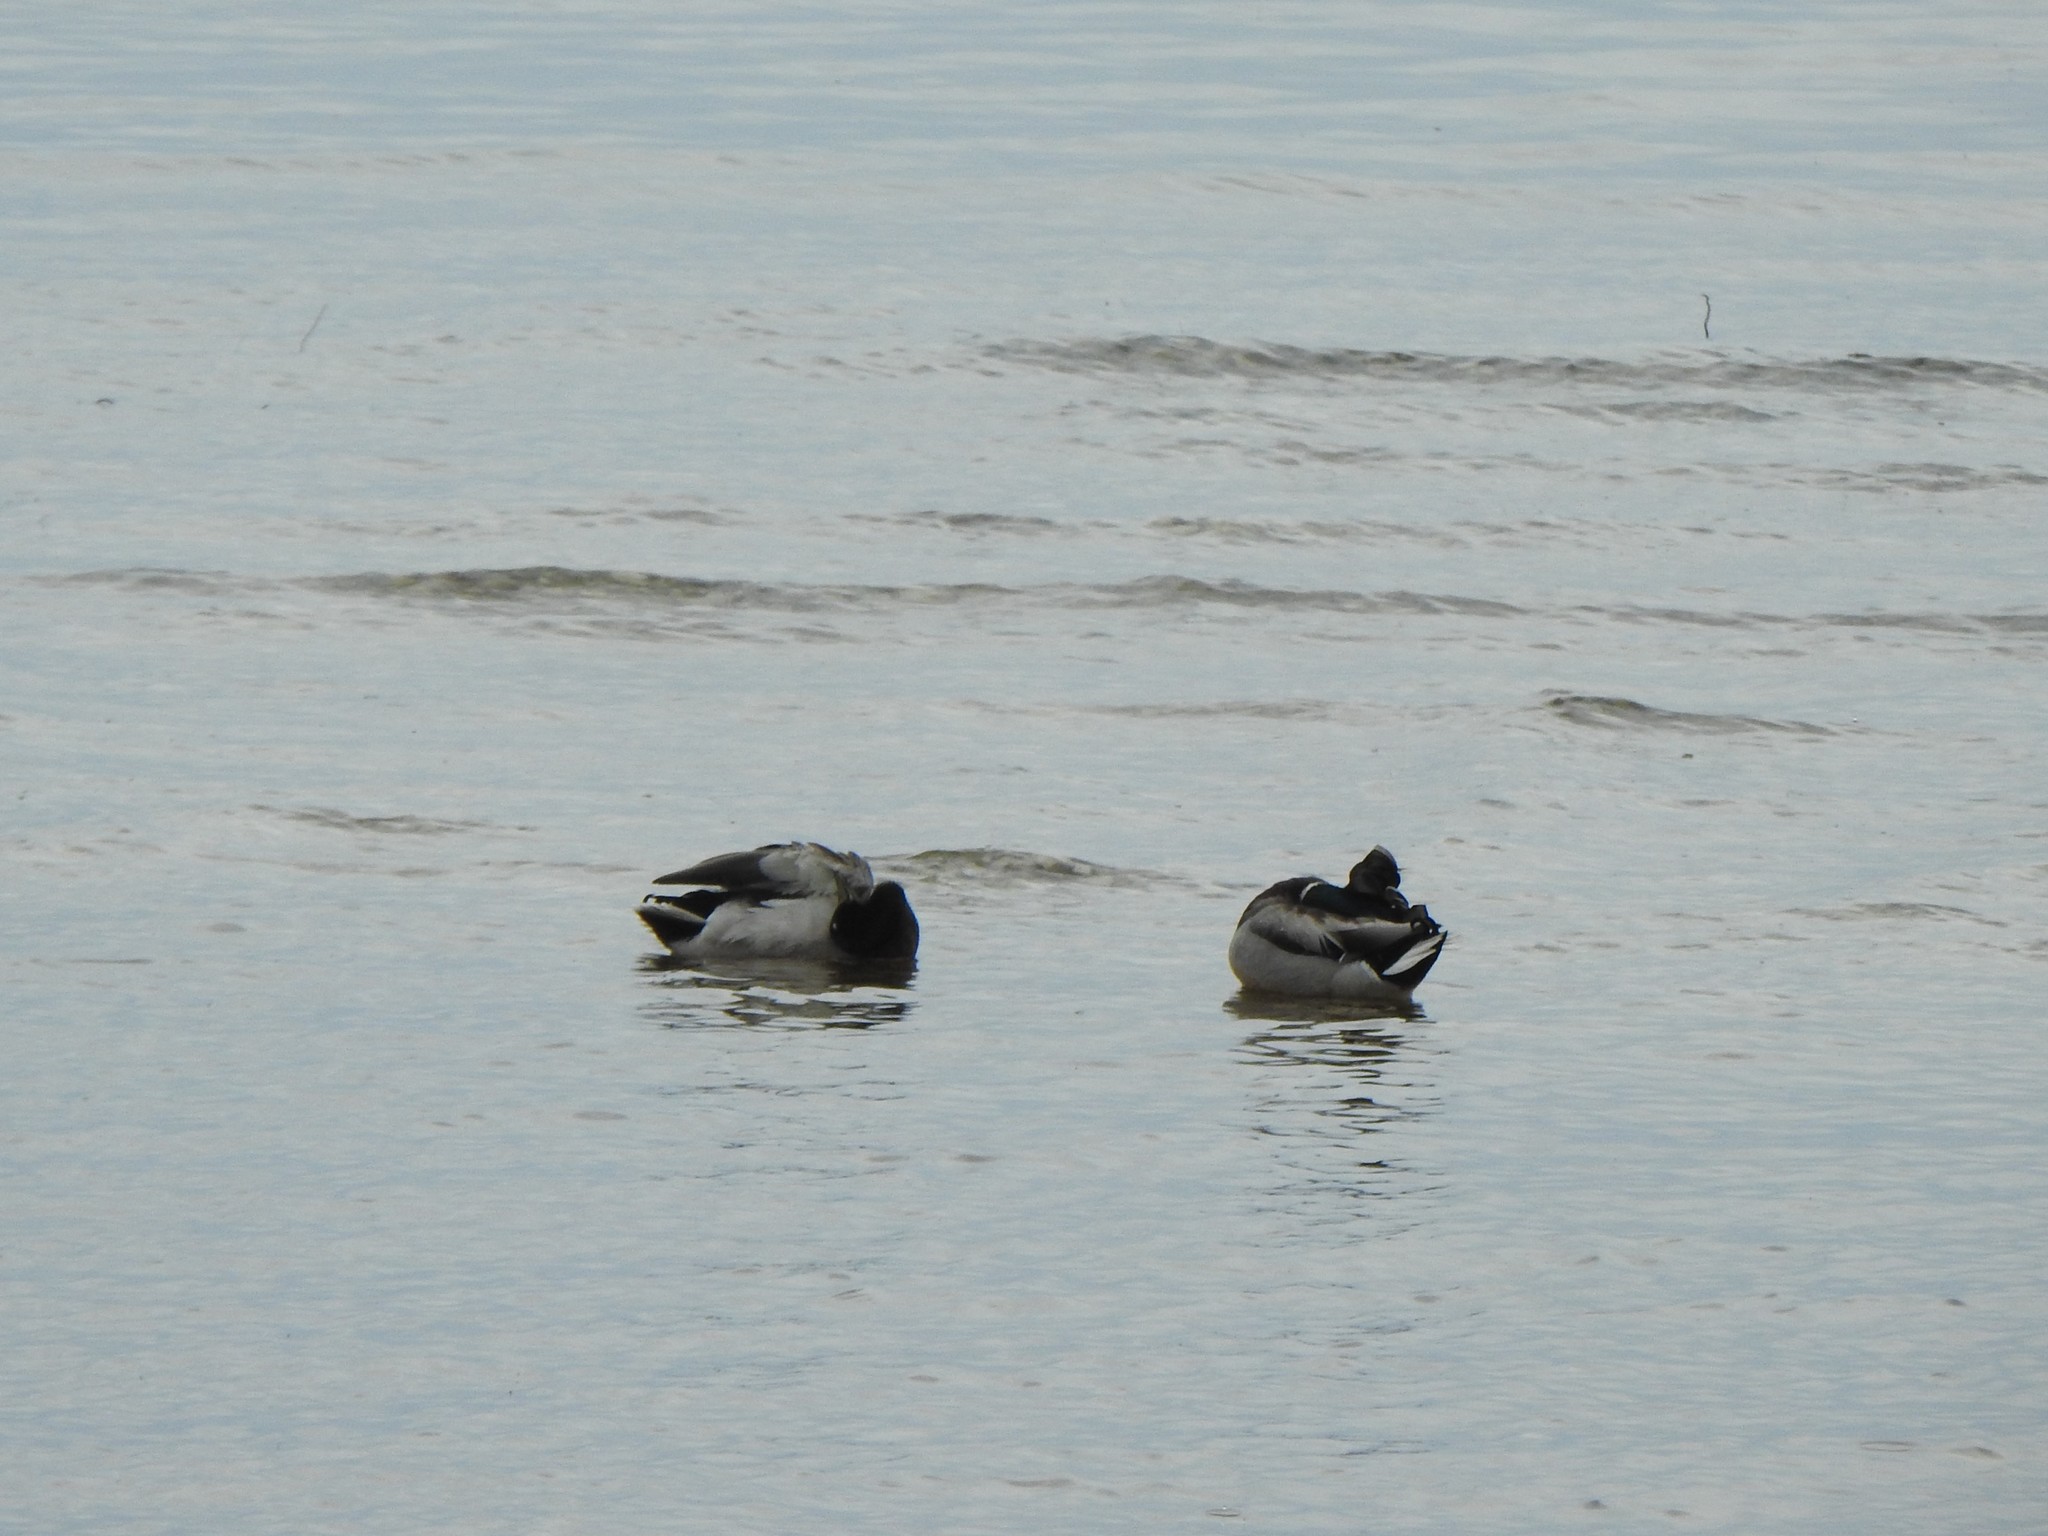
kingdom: Animalia
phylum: Chordata
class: Aves
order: Anseriformes
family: Anatidae
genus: Anas
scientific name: Anas platyrhynchos
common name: Mallard
